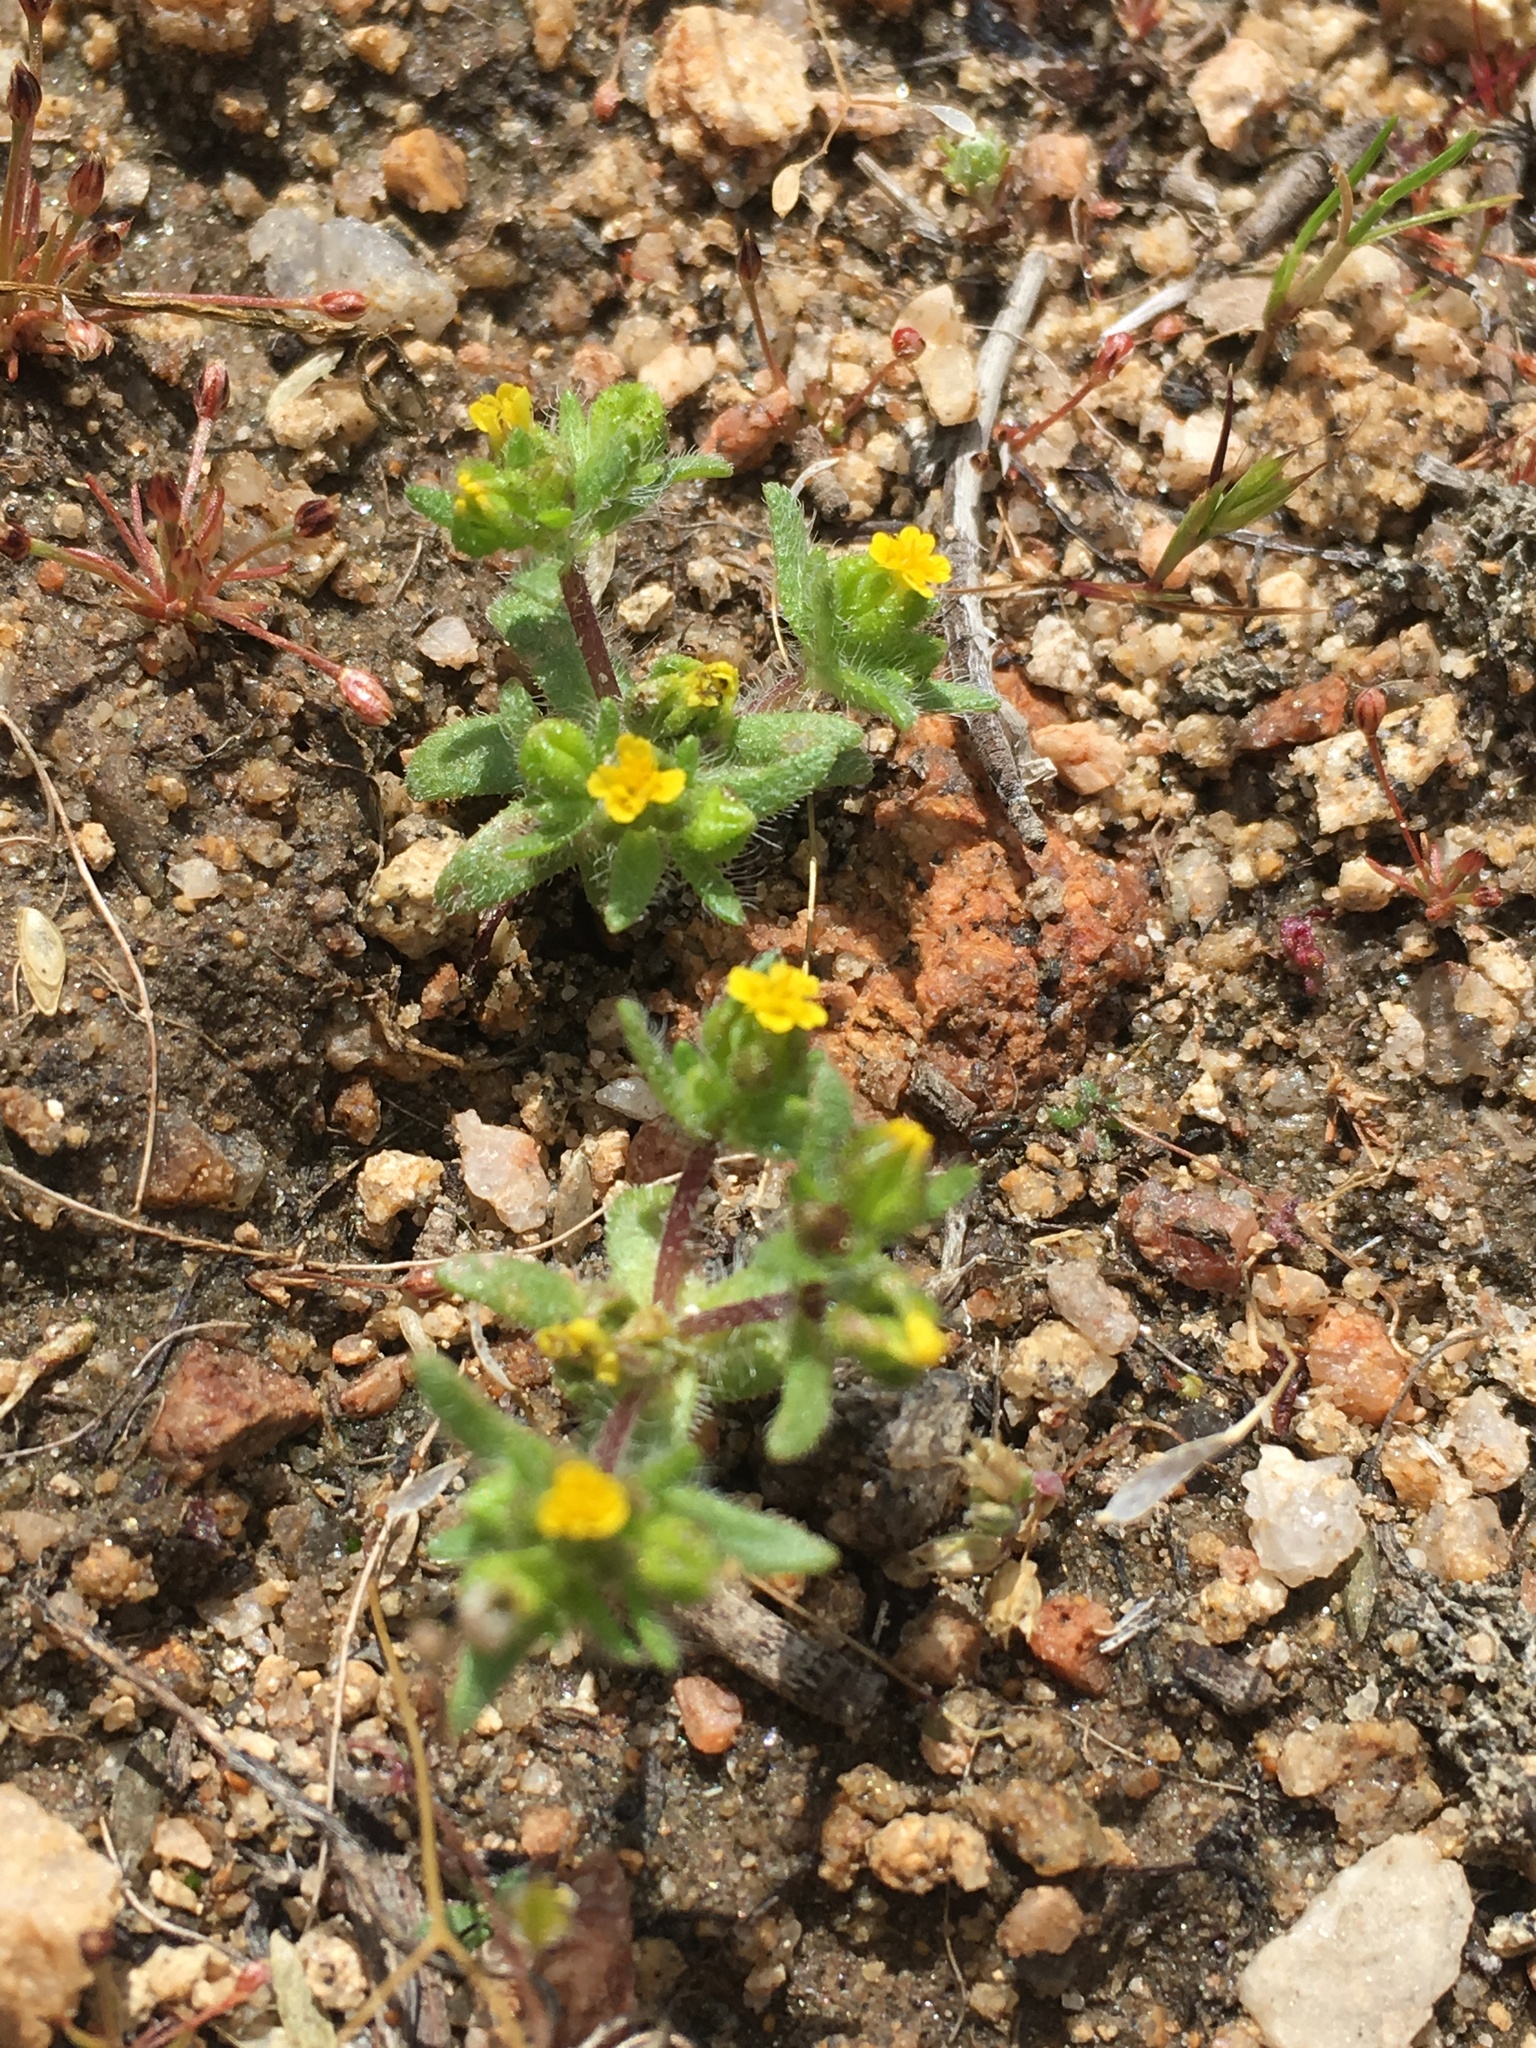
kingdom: Plantae
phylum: Tracheophyta
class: Magnoliopsida
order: Asterales
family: Asteraceae
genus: Hemizonella
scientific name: Hemizonella minima
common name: Opposite-leaved tarweed
